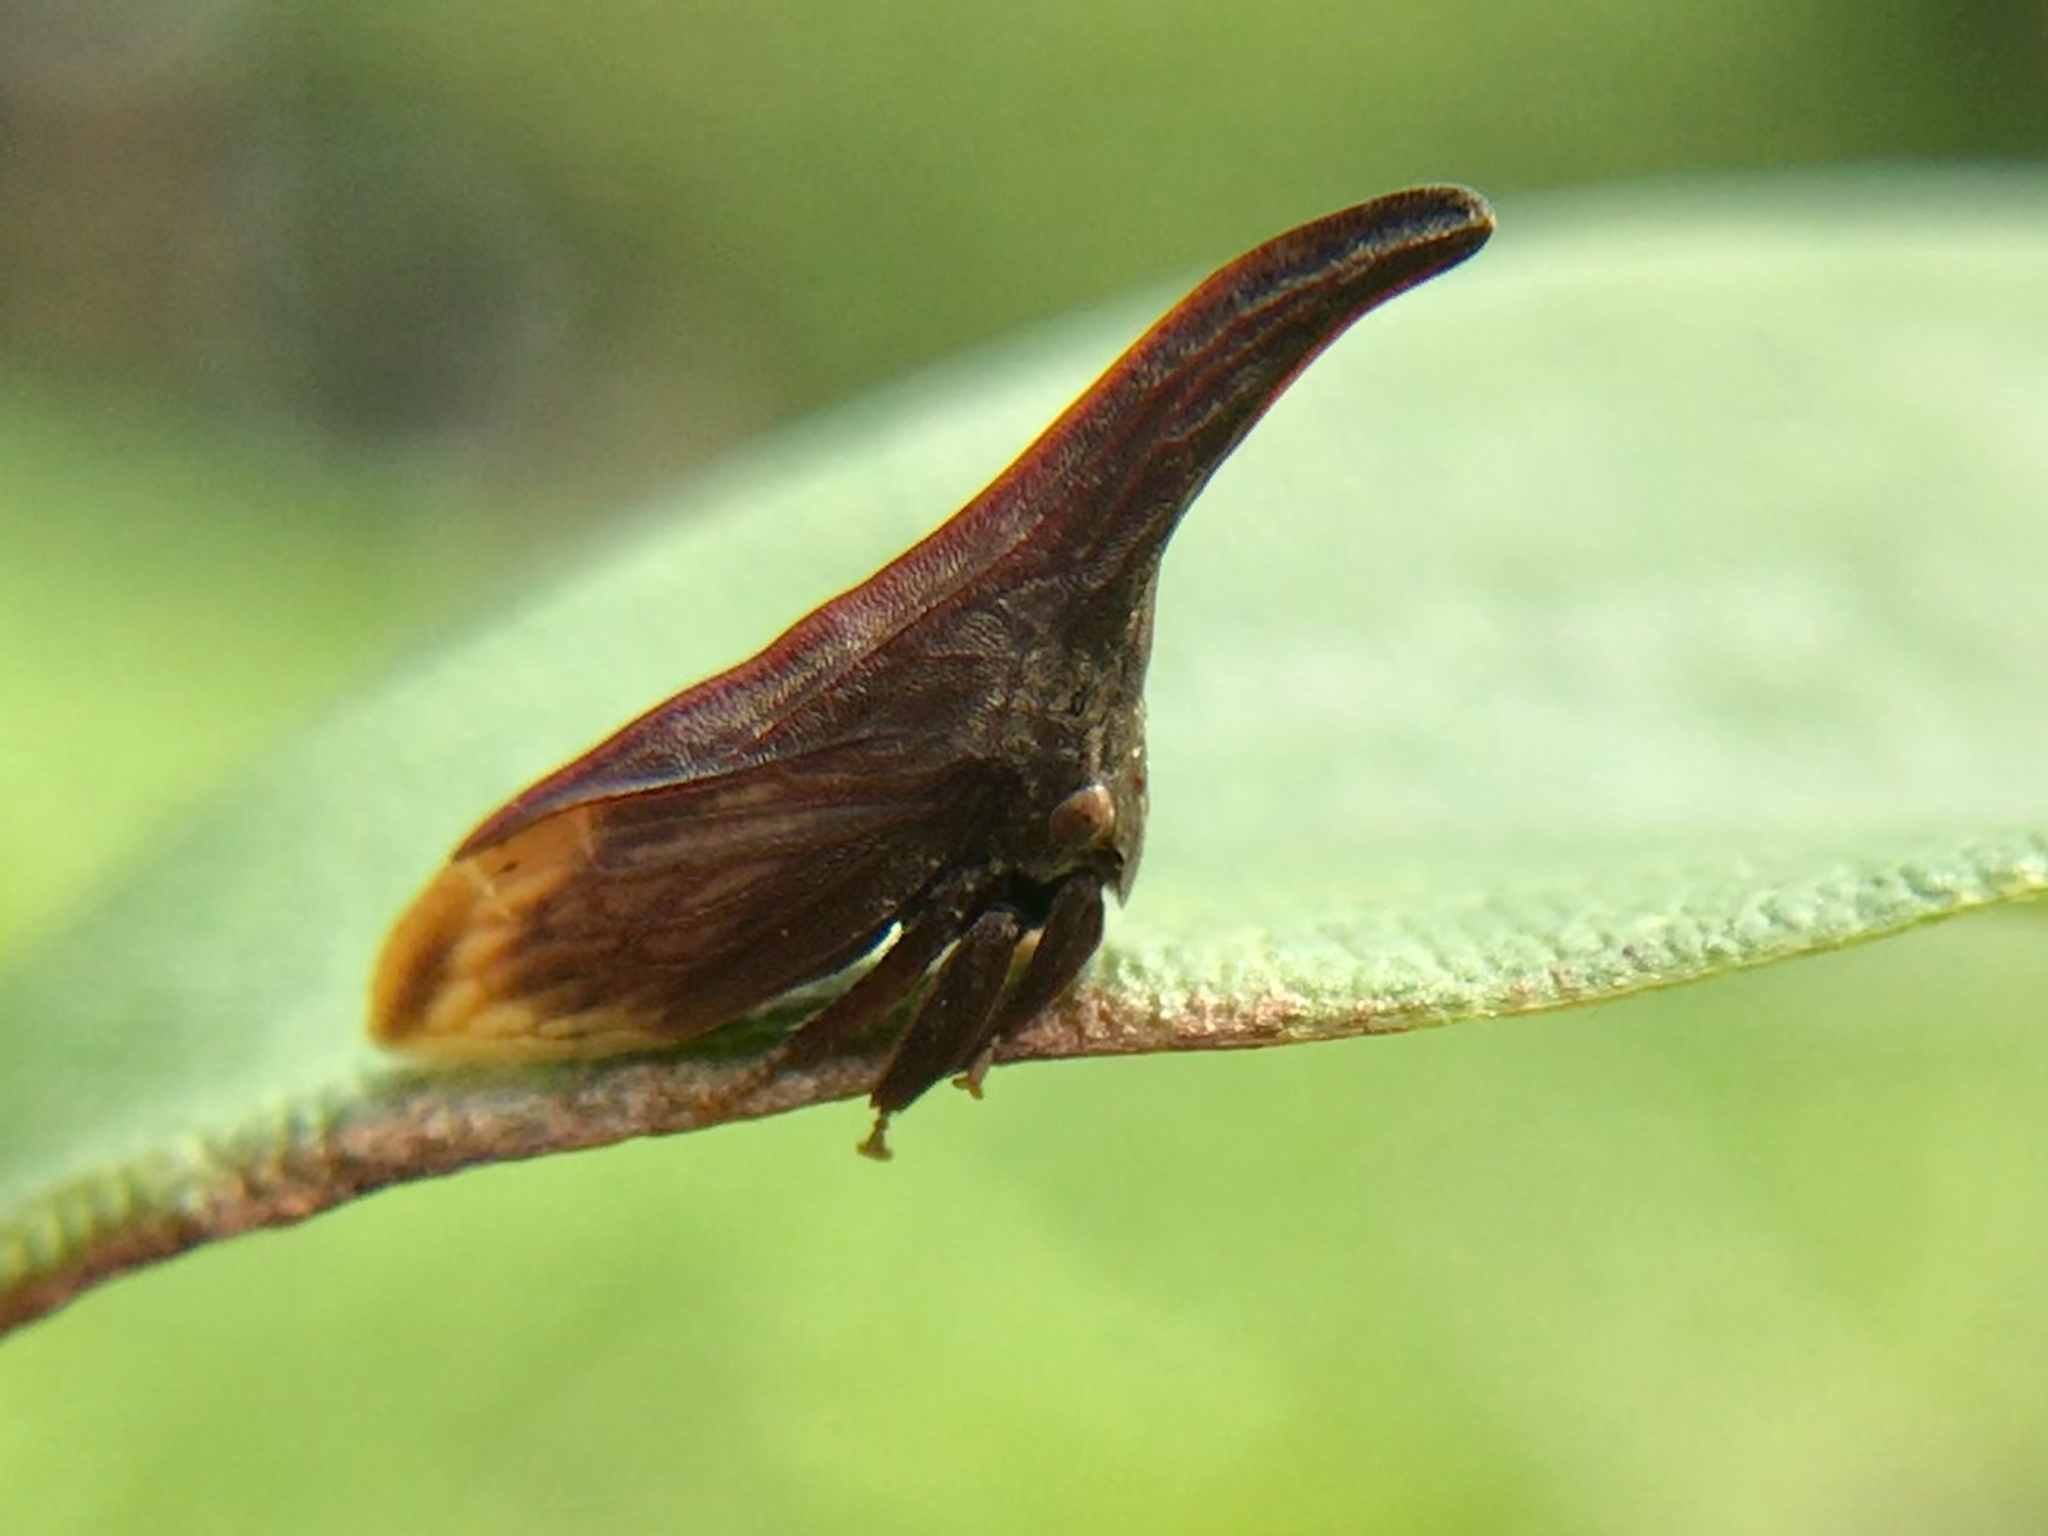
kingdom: Animalia
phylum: Arthropoda
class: Insecta
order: Hemiptera
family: Membracidae
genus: Enchenopa
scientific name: Enchenopa latipes
